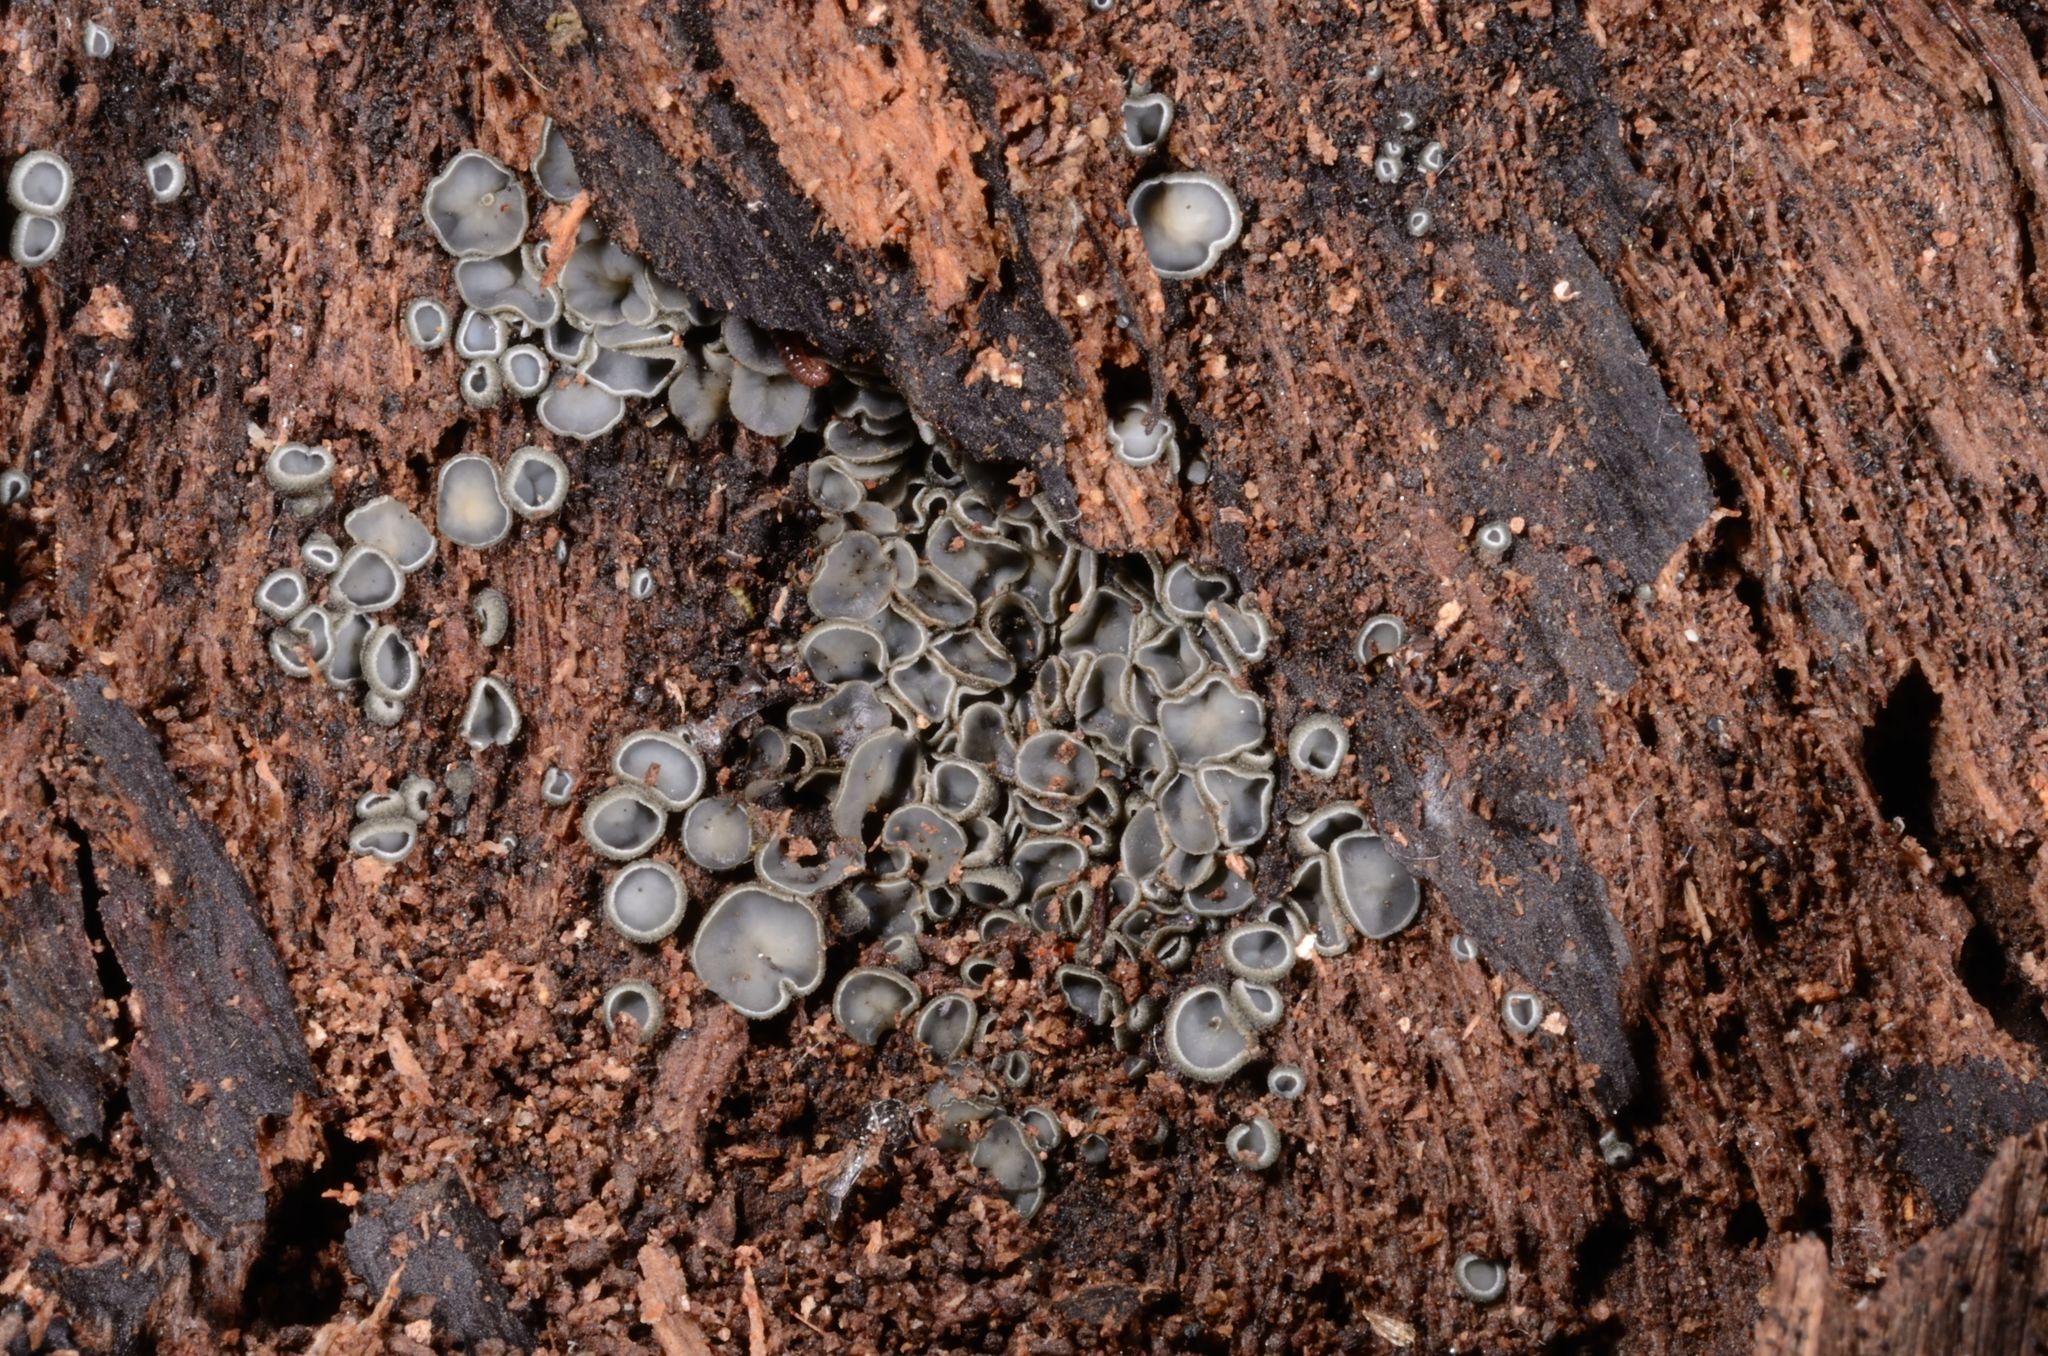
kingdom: Fungi
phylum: Ascomycota
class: Leotiomycetes
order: Helotiales
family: Mollisiaceae
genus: Mollisia
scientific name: Mollisia olivascens
